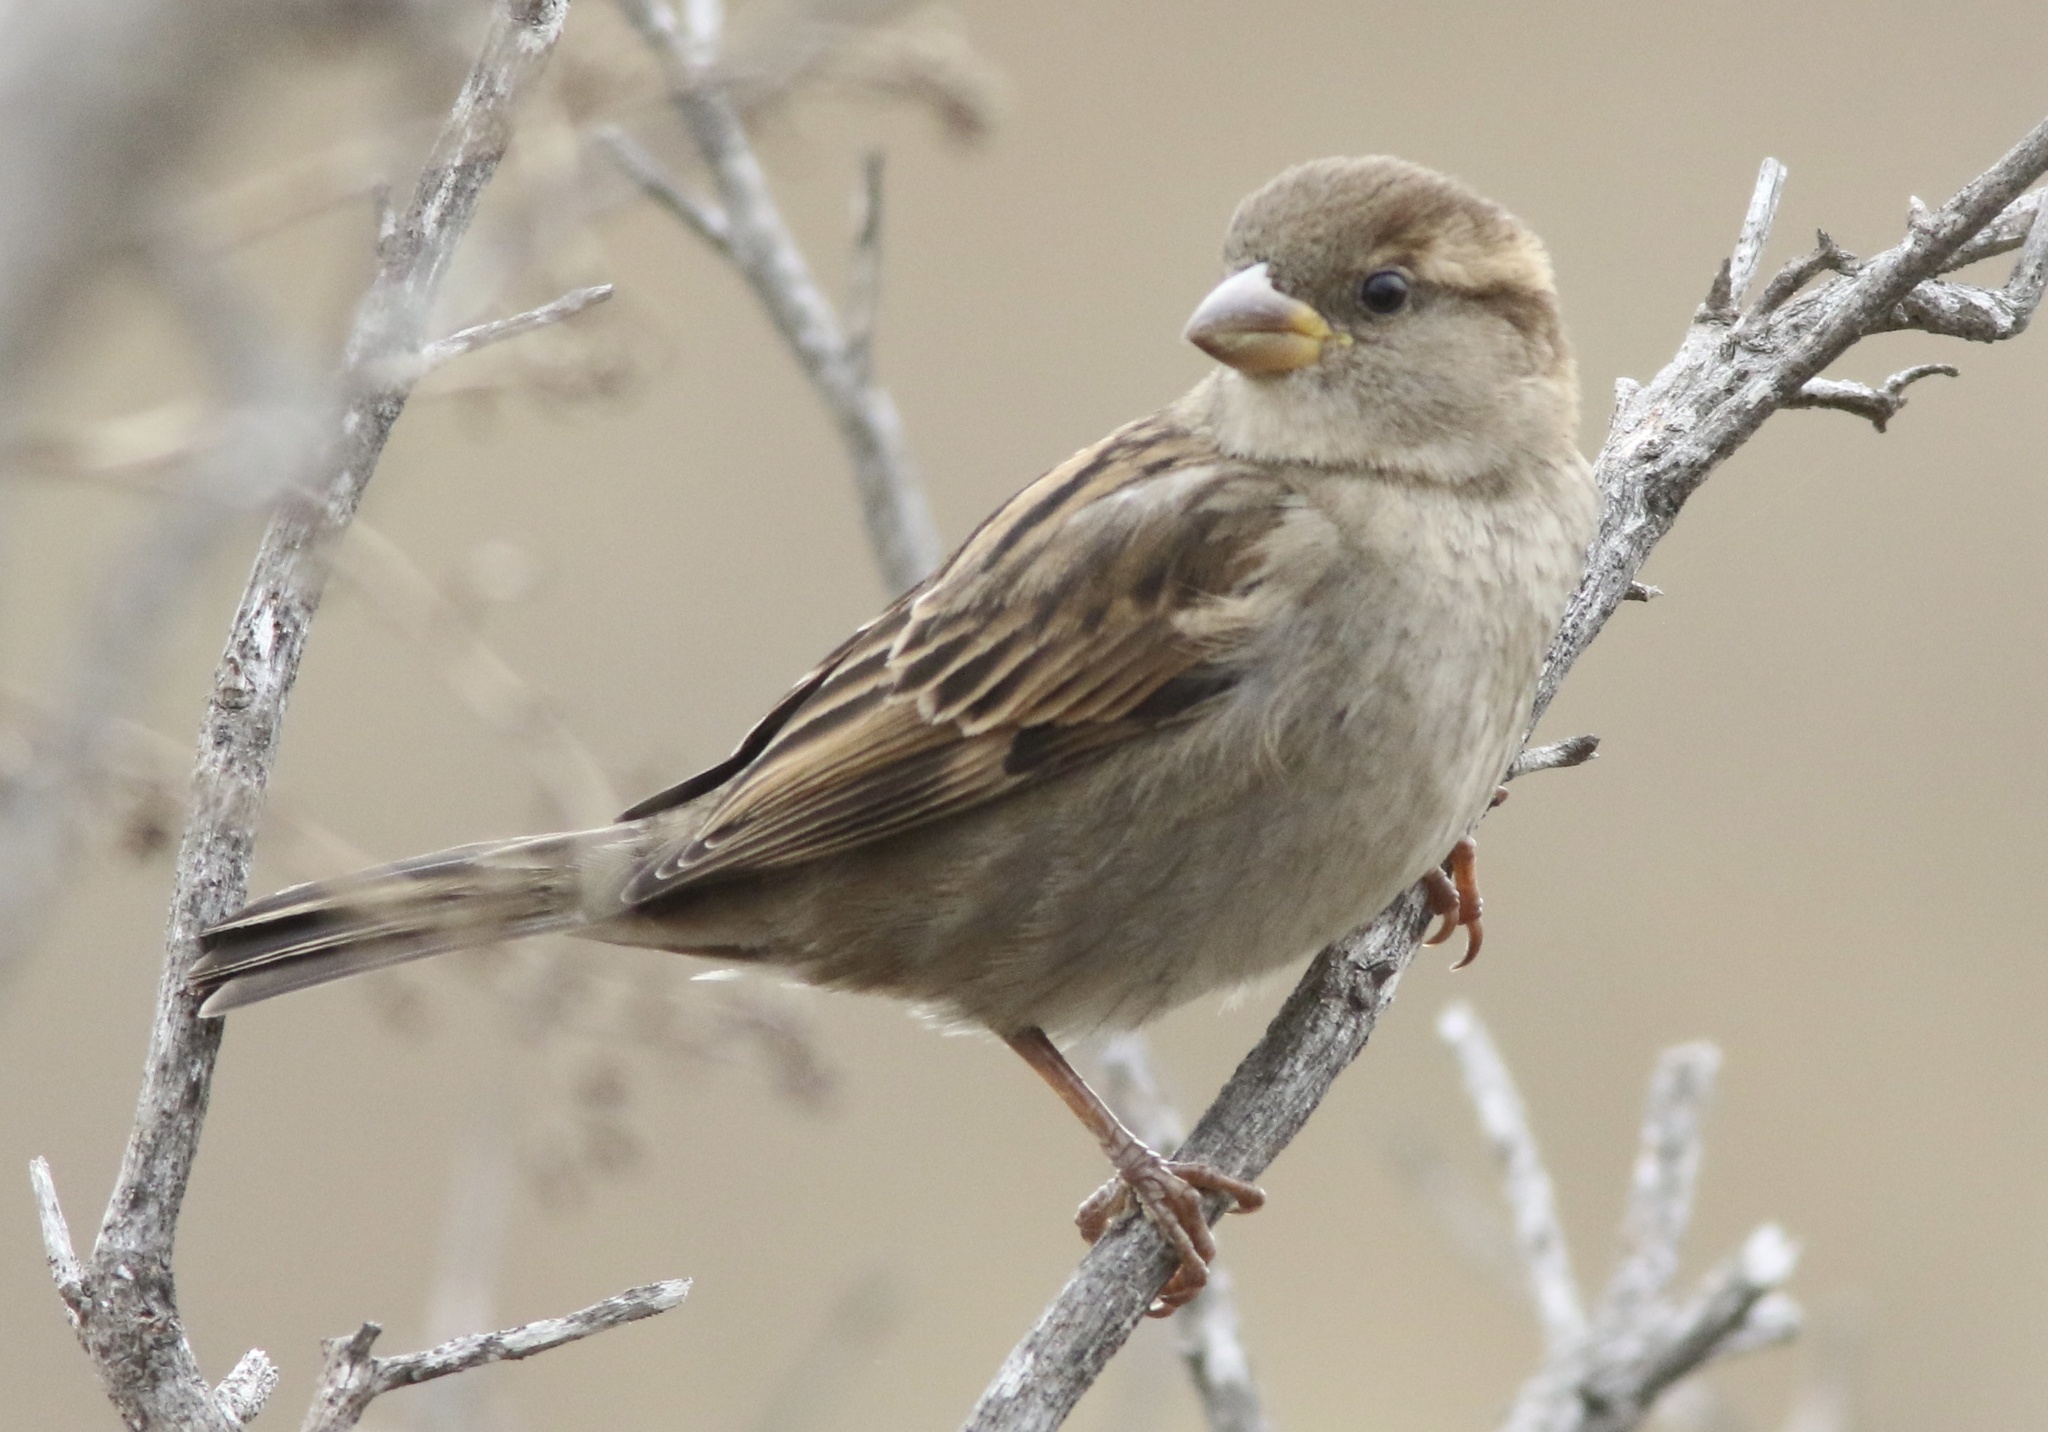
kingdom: Animalia
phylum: Chordata
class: Aves
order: Passeriformes
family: Passeridae
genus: Passer
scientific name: Passer domesticus
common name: House sparrow
